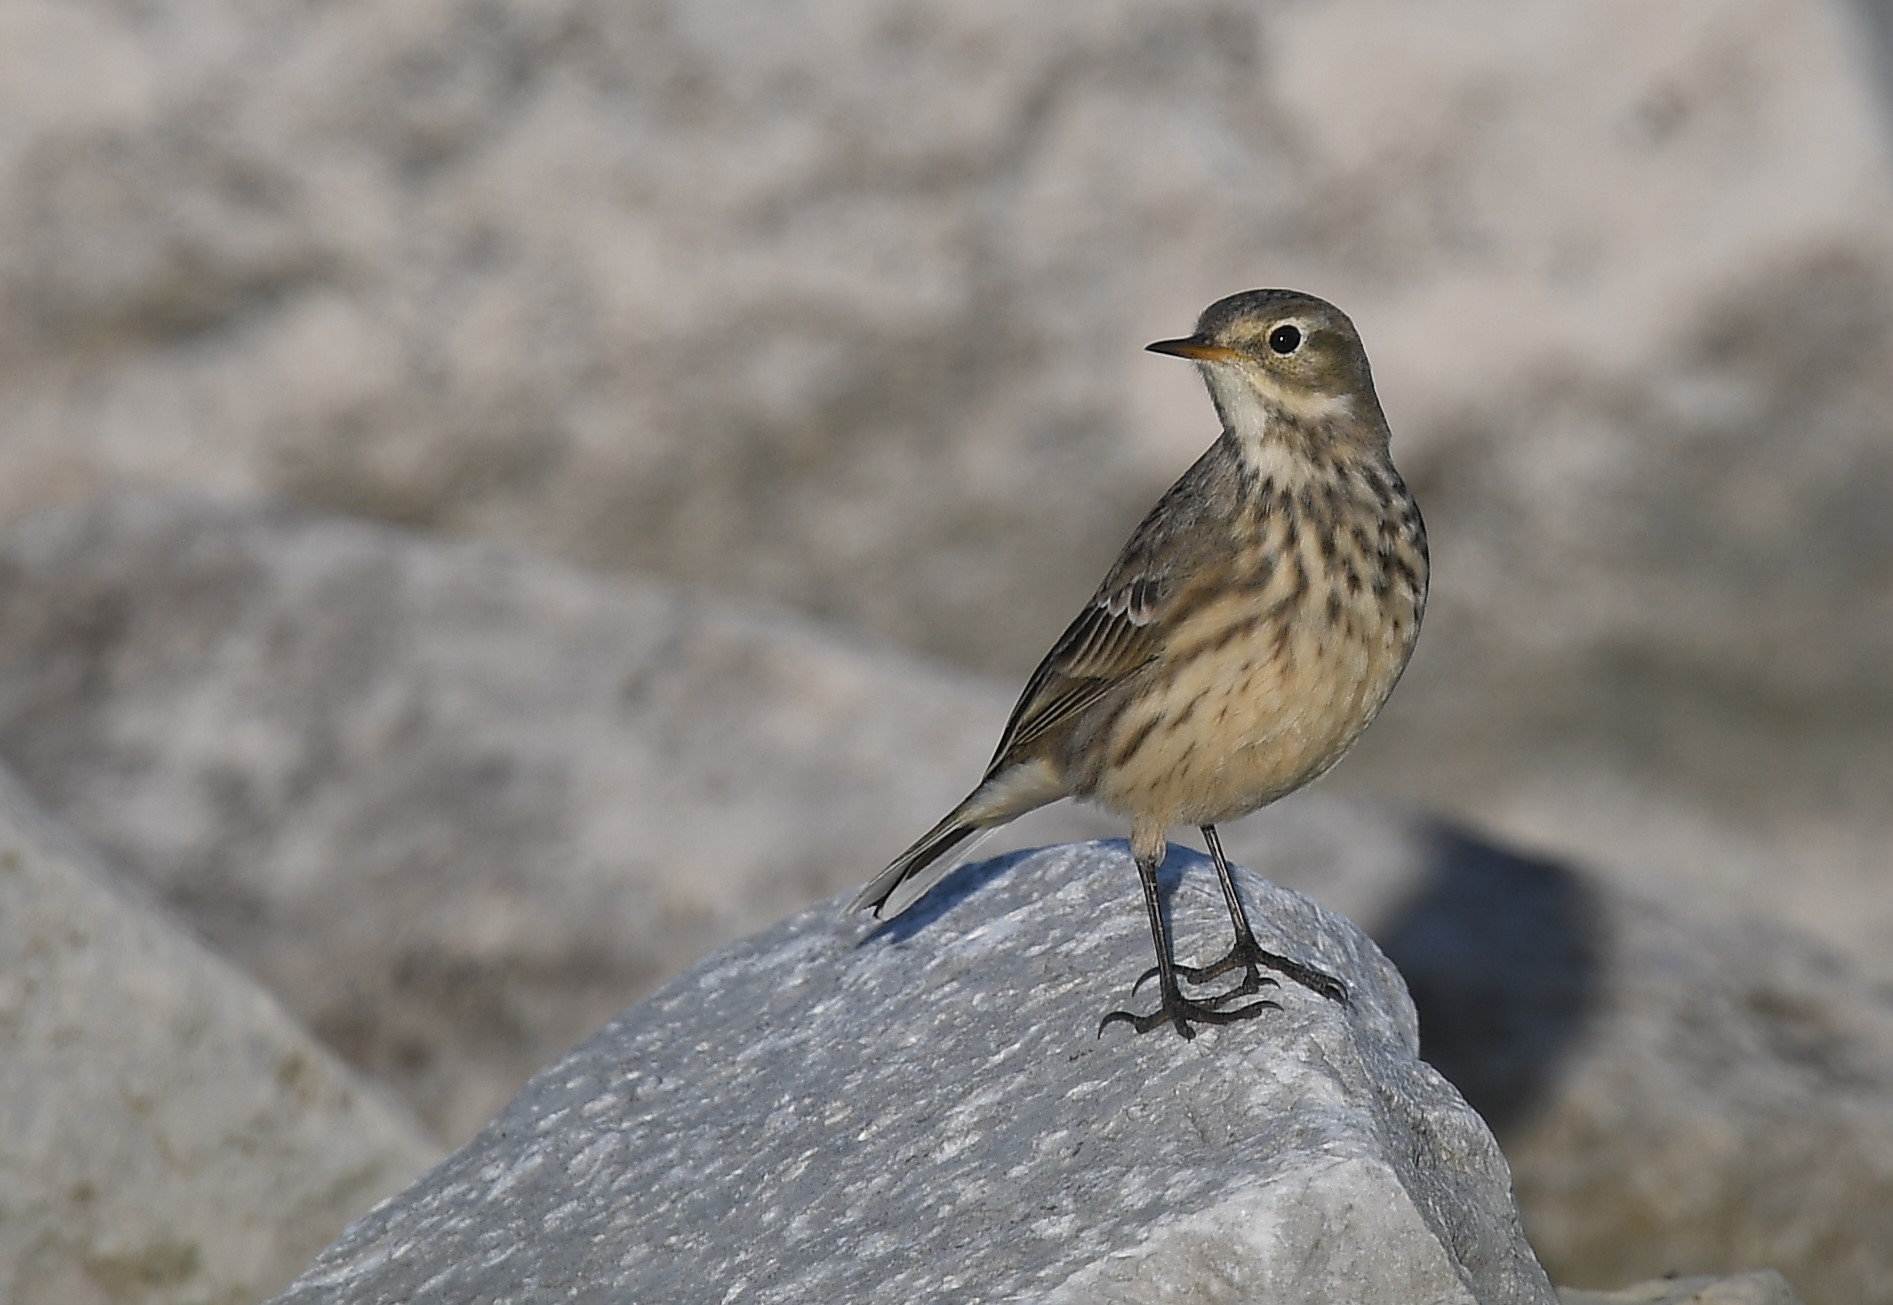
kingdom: Animalia
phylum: Chordata
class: Aves
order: Passeriformes
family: Motacillidae
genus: Anthus
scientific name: Anthus rubescens
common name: Buff-bellied pipit
